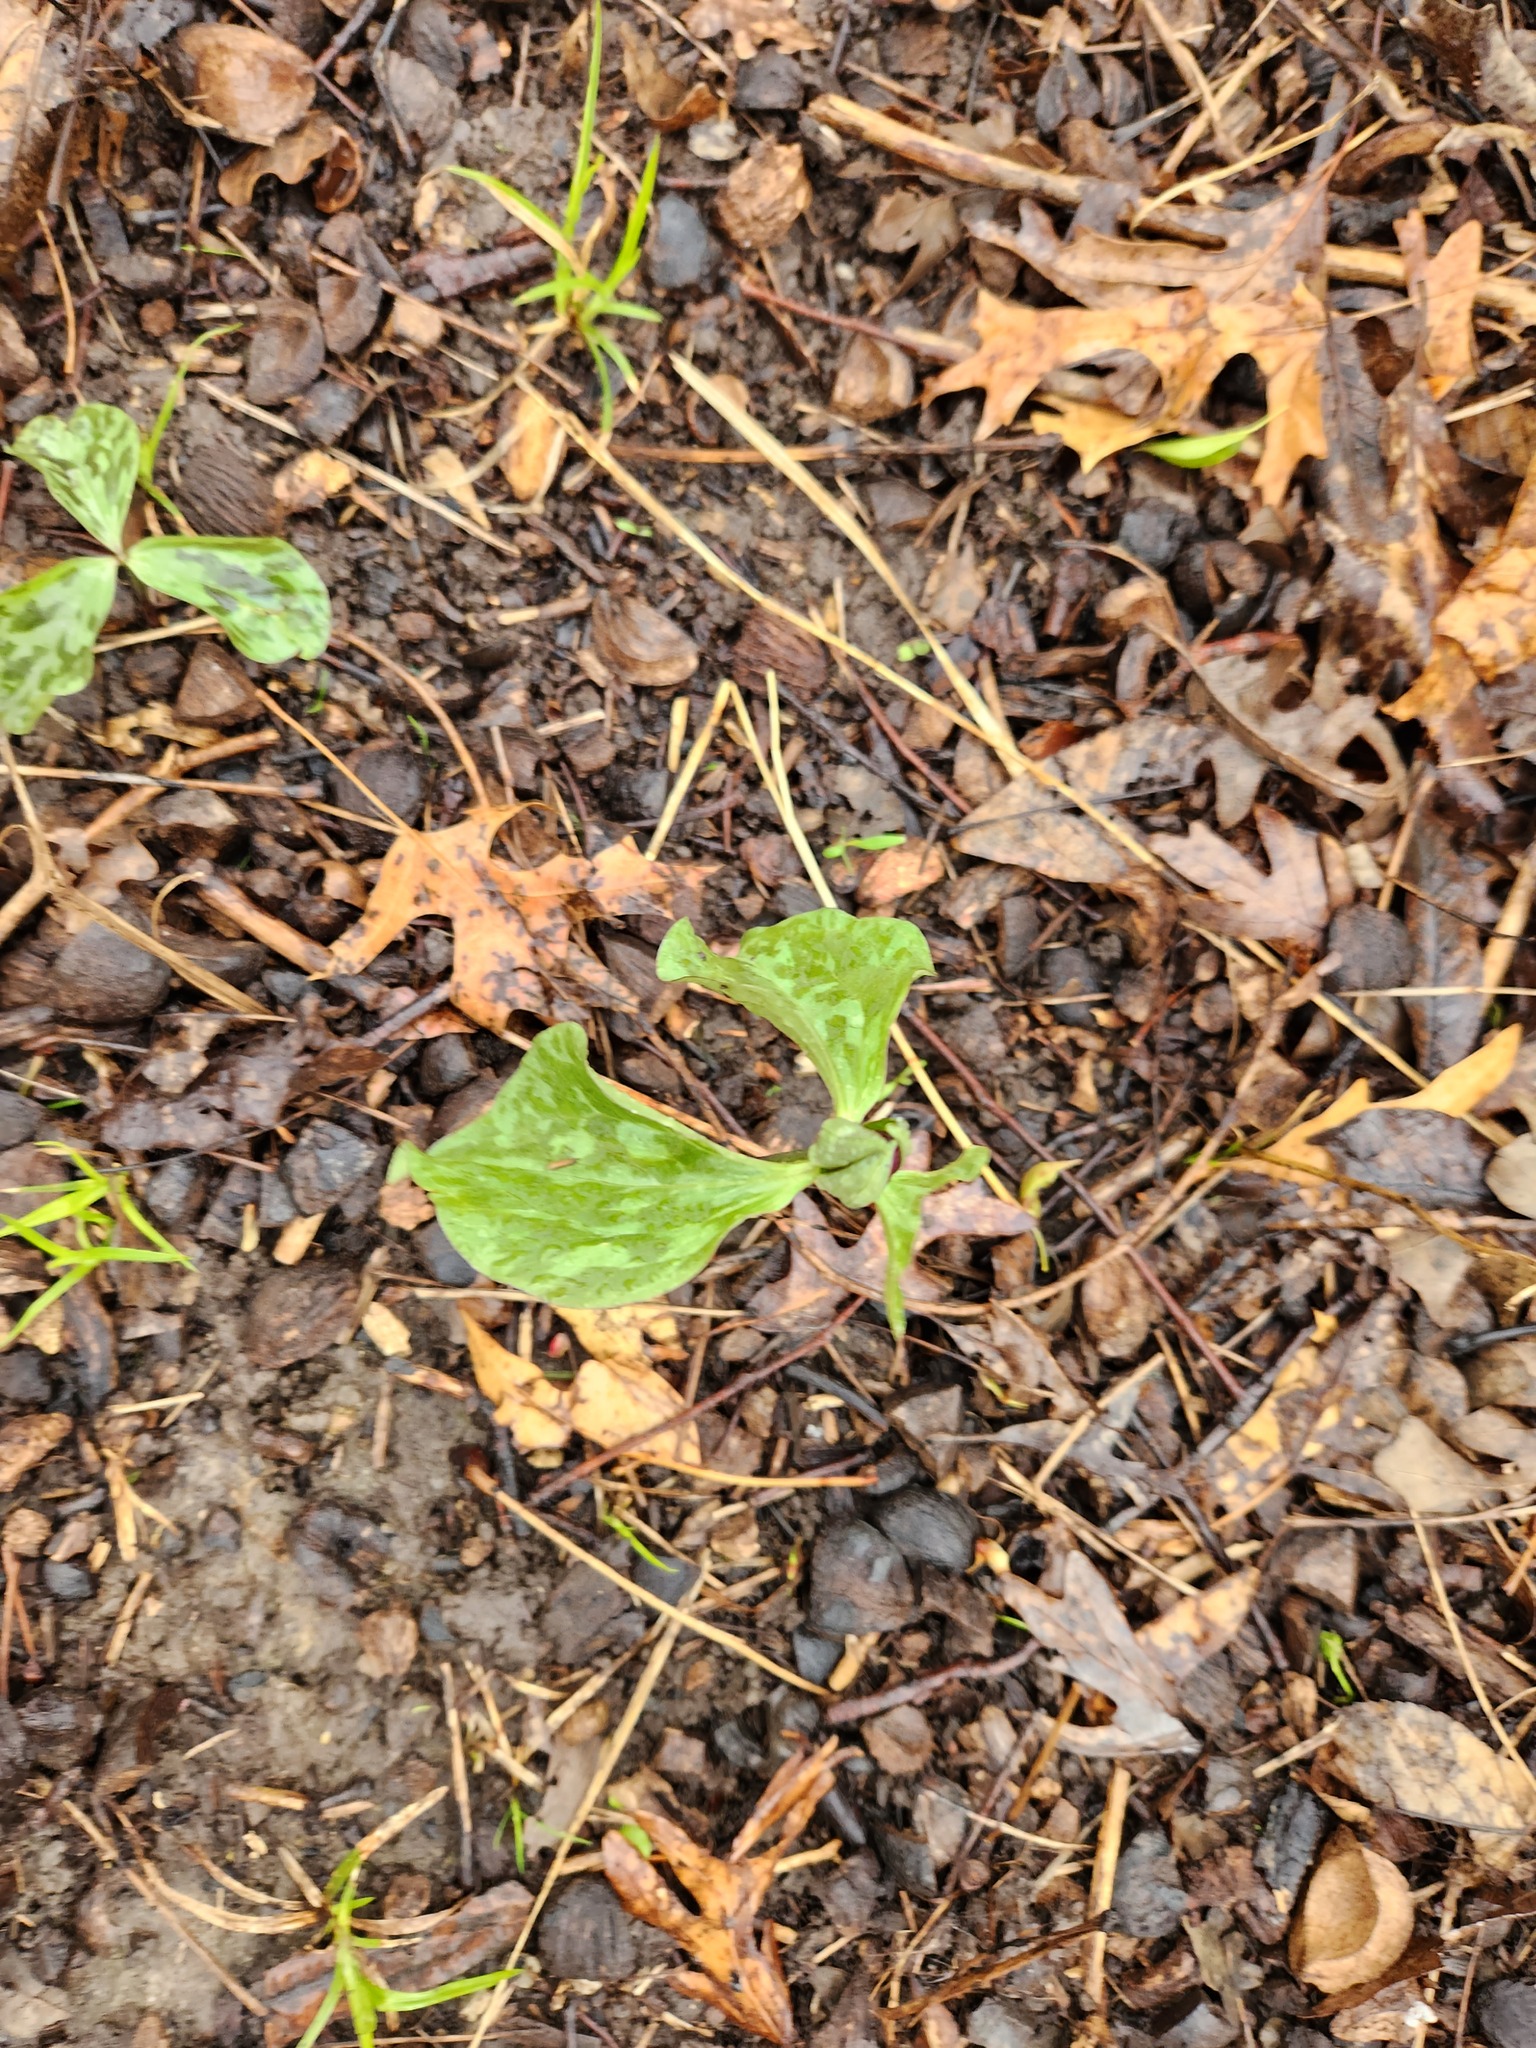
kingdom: Plantae
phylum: Tracheophyta
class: Liliopsida
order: Liliales
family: Melanthiaceae
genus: Trillium
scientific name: Trillium recurvatum
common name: Bloody butcher
